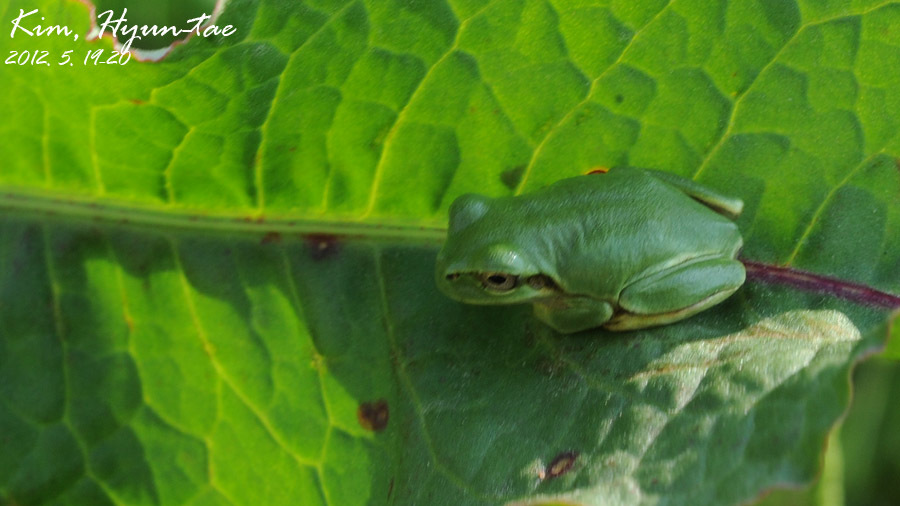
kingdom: Animalia
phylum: Chordata
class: Amphibia
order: Anura
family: Hylidae
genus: Dryophytes
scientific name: Dryophytes japonicus
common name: Japanese treefrog
